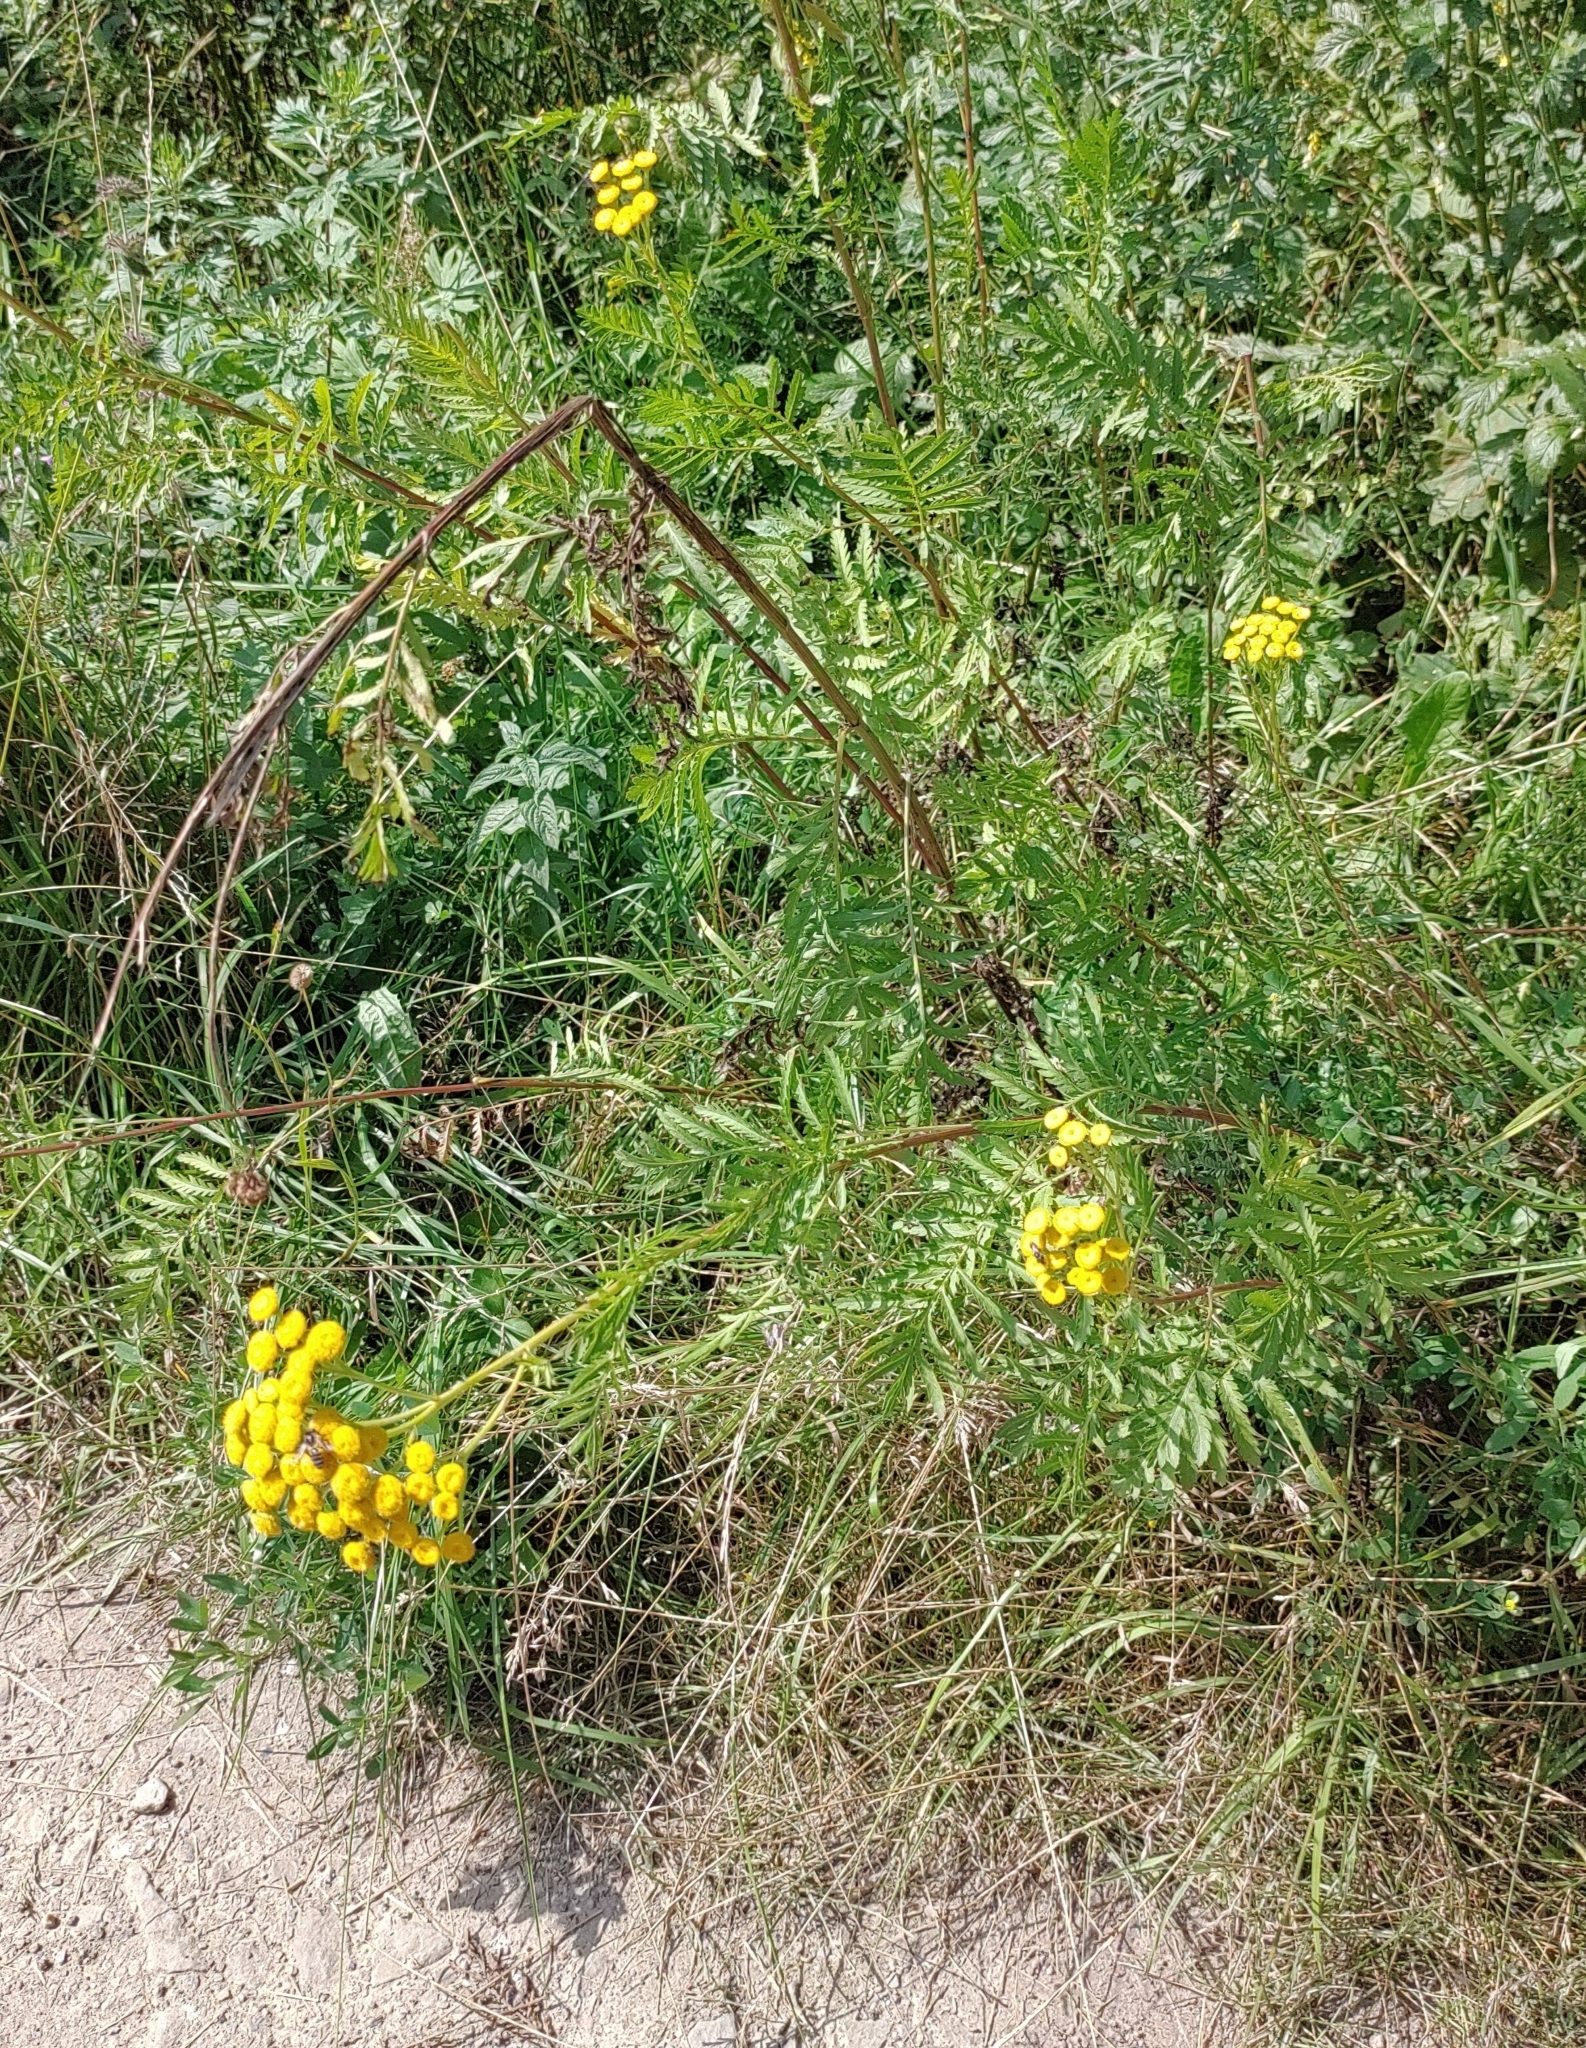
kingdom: Plantae
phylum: Tracheophyta
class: Magnoliopsida
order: Asterales
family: Asteraceae
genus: Tanacetum
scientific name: Tanacetum vulgare
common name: Common tansy
